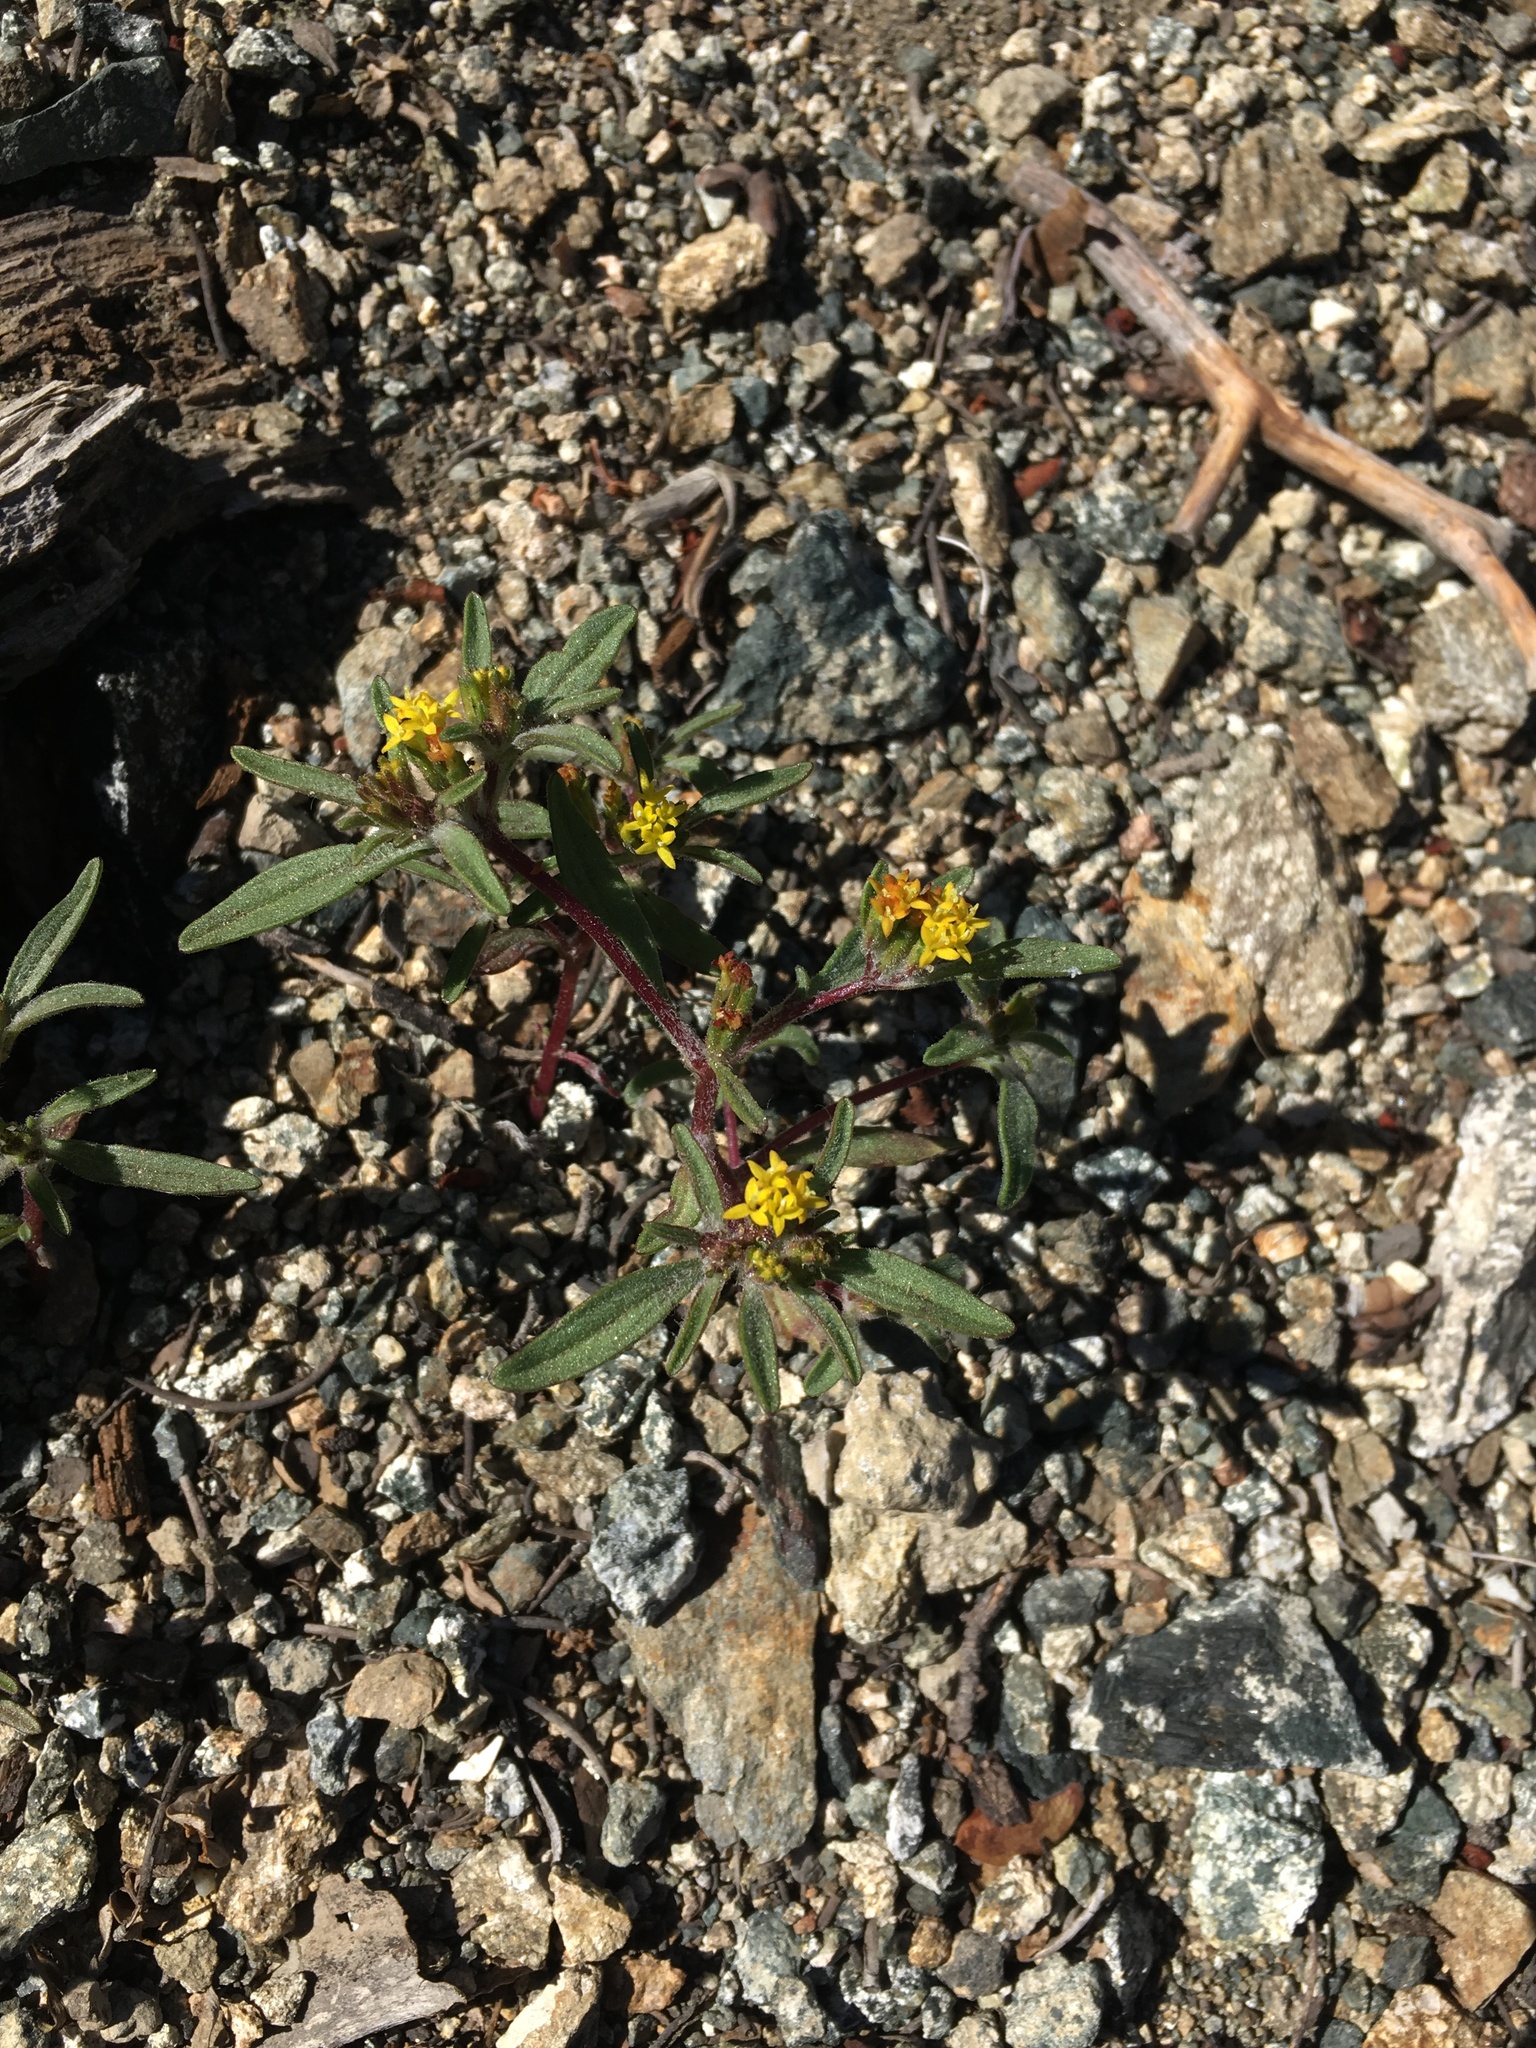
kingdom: Plantae
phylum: Tracheophyta
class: Magnoliopsida
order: Asterales
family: Asteraceae
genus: Orochaenactis
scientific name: Orochaenactis thysanocarpha
